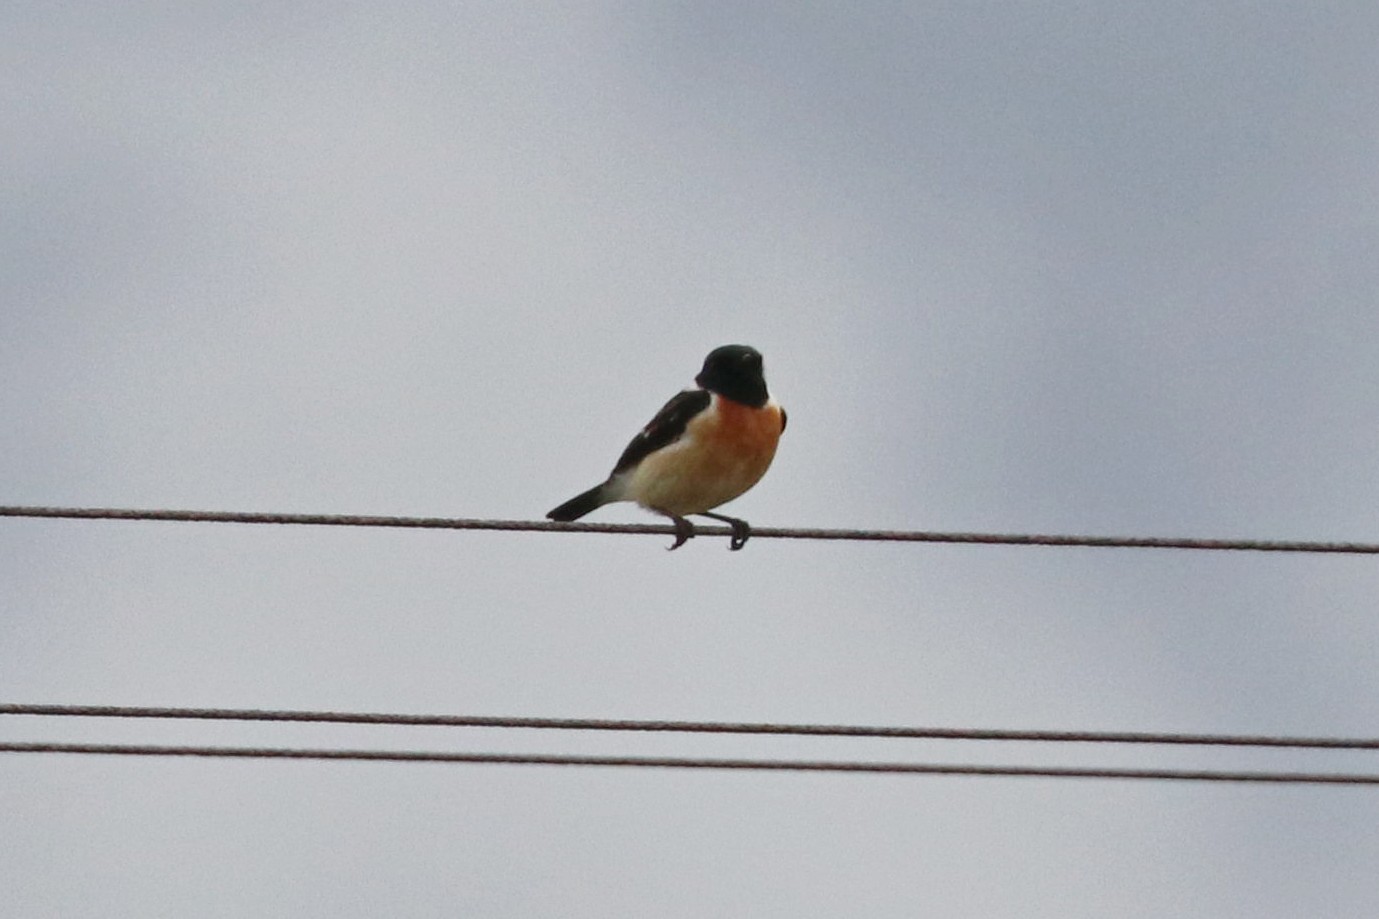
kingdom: Animalia
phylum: Chordata
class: Aves
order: Passeriformes
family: Muscicapidae
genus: Saxicola
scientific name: Saxicola maurus
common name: Siberian stonechat
